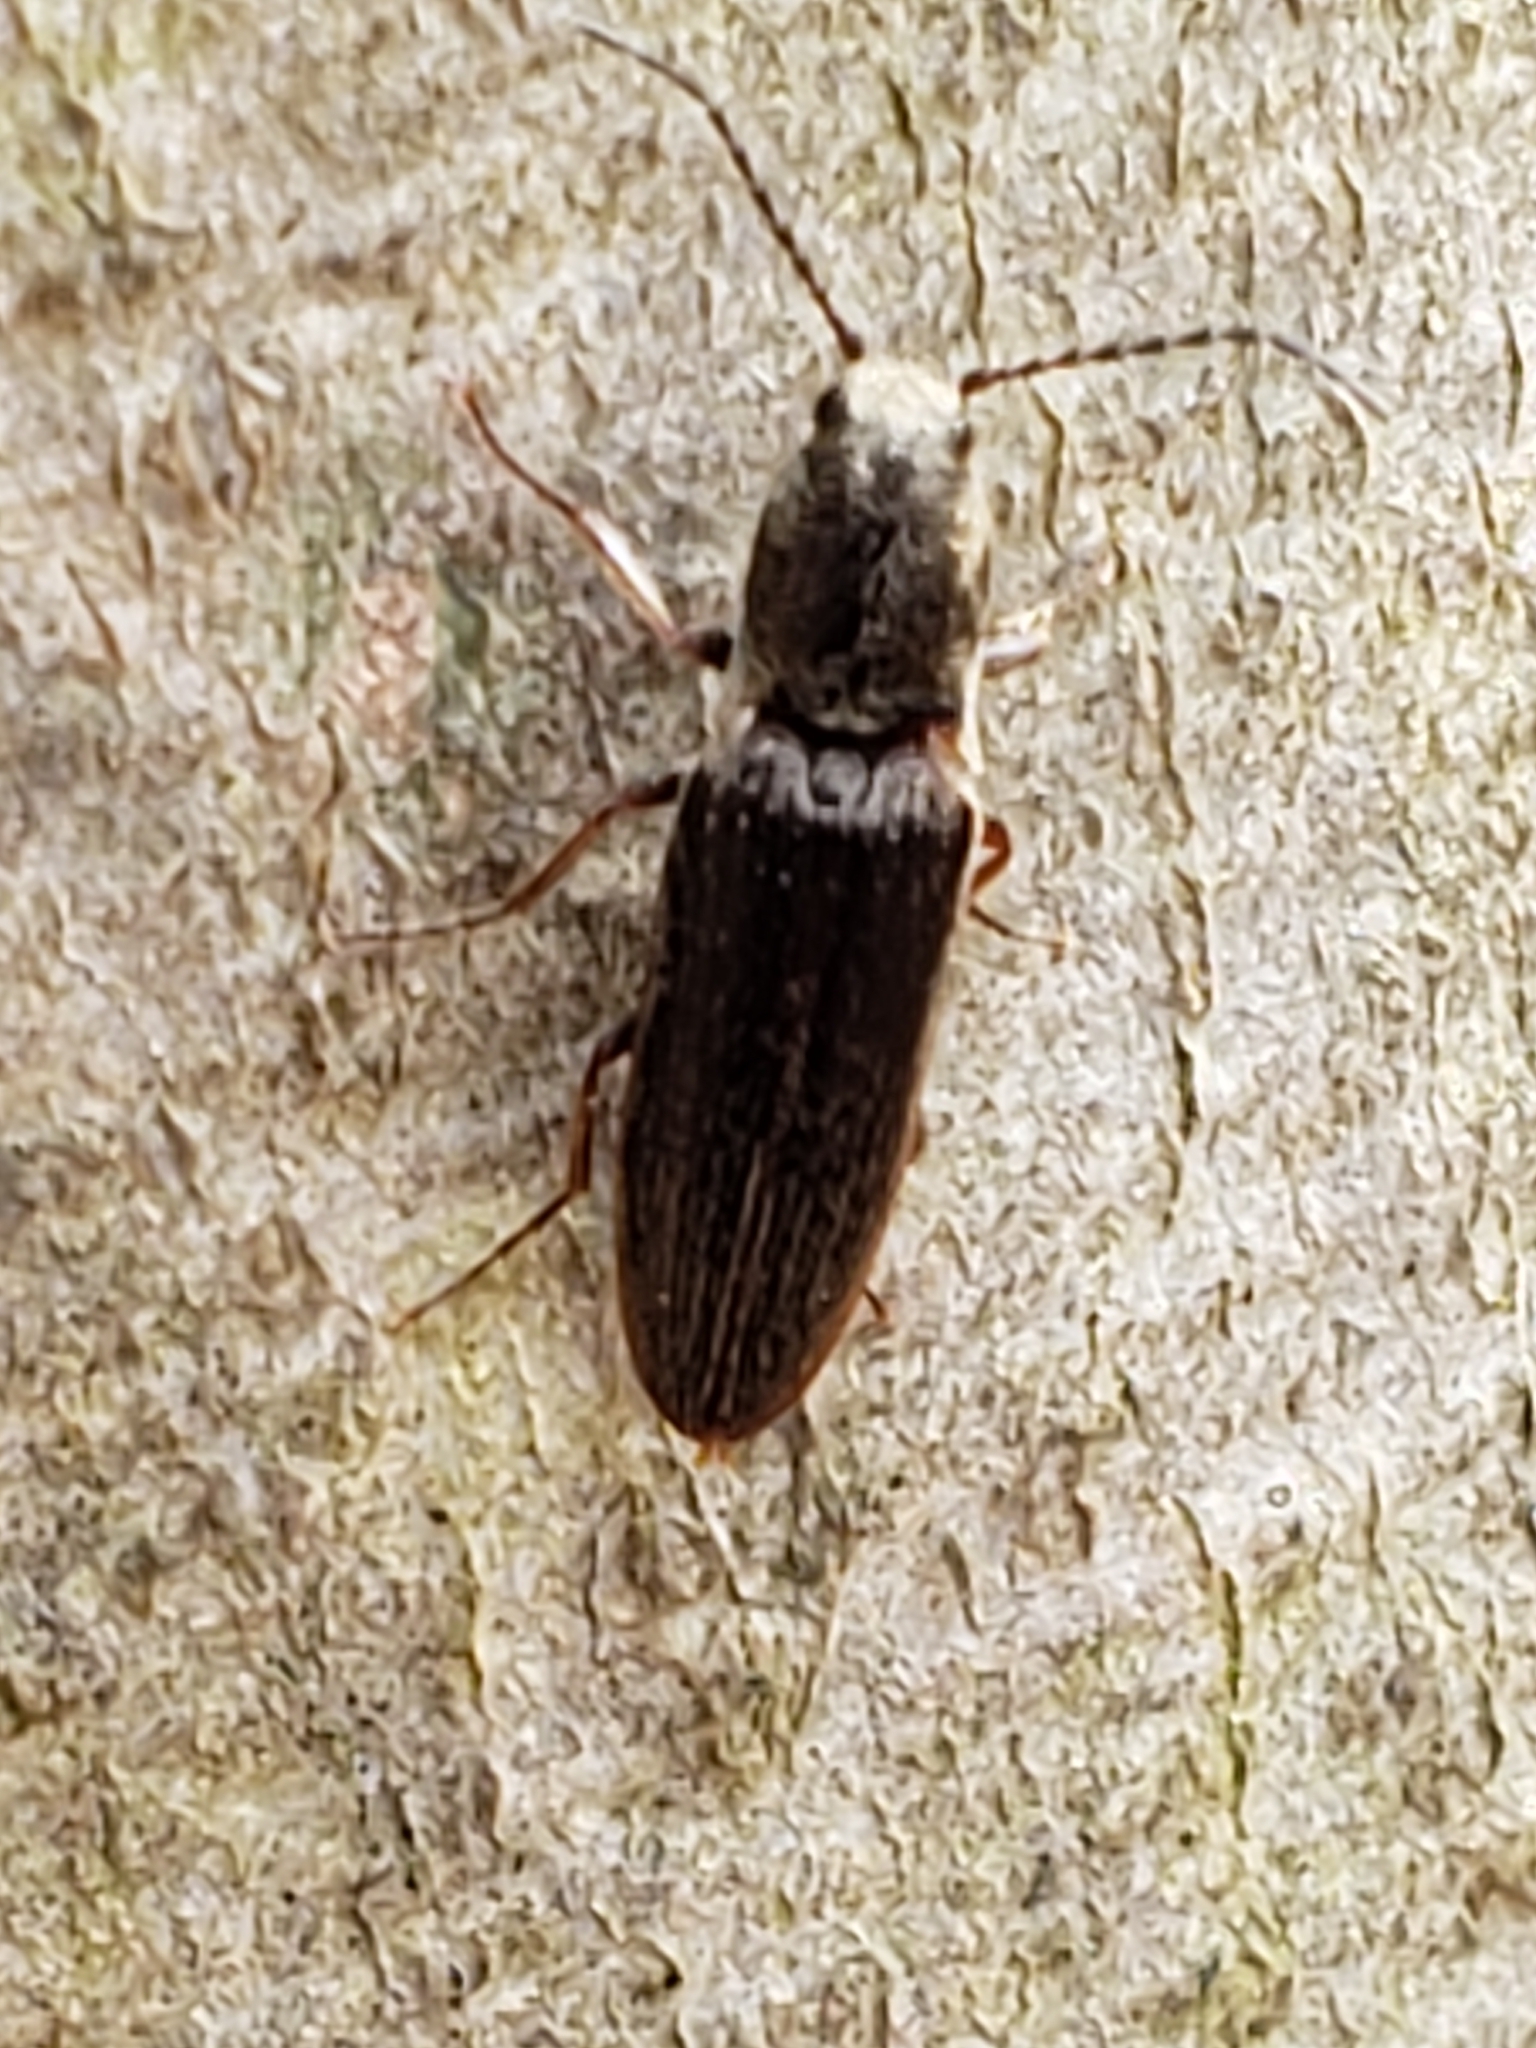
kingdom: Animalia
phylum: Arthropoda
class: Insecta
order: Coleoptera
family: Elateridae
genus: Sylvanelater
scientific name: Sylvanelater cylindriformis
